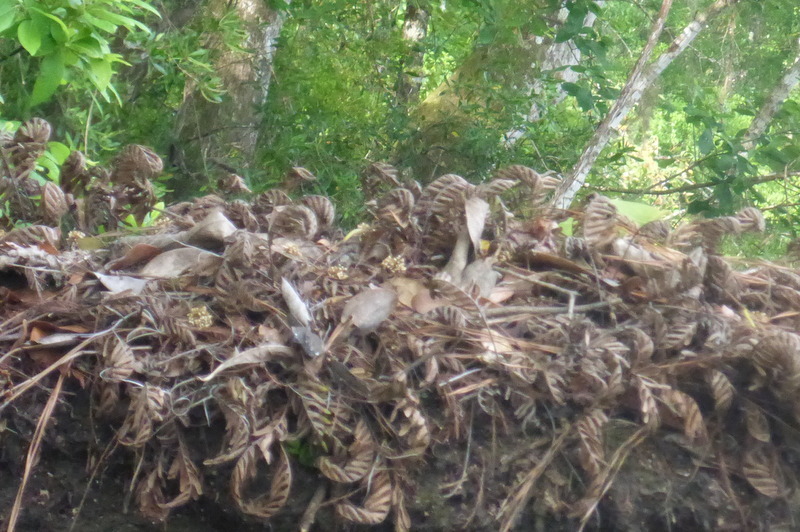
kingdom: Plantae
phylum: Tracheophyta
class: Polypodiopsida
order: Polypodiales
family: Polypodiaceae
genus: Pleopeltis
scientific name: Pleopeltis michauxiana
